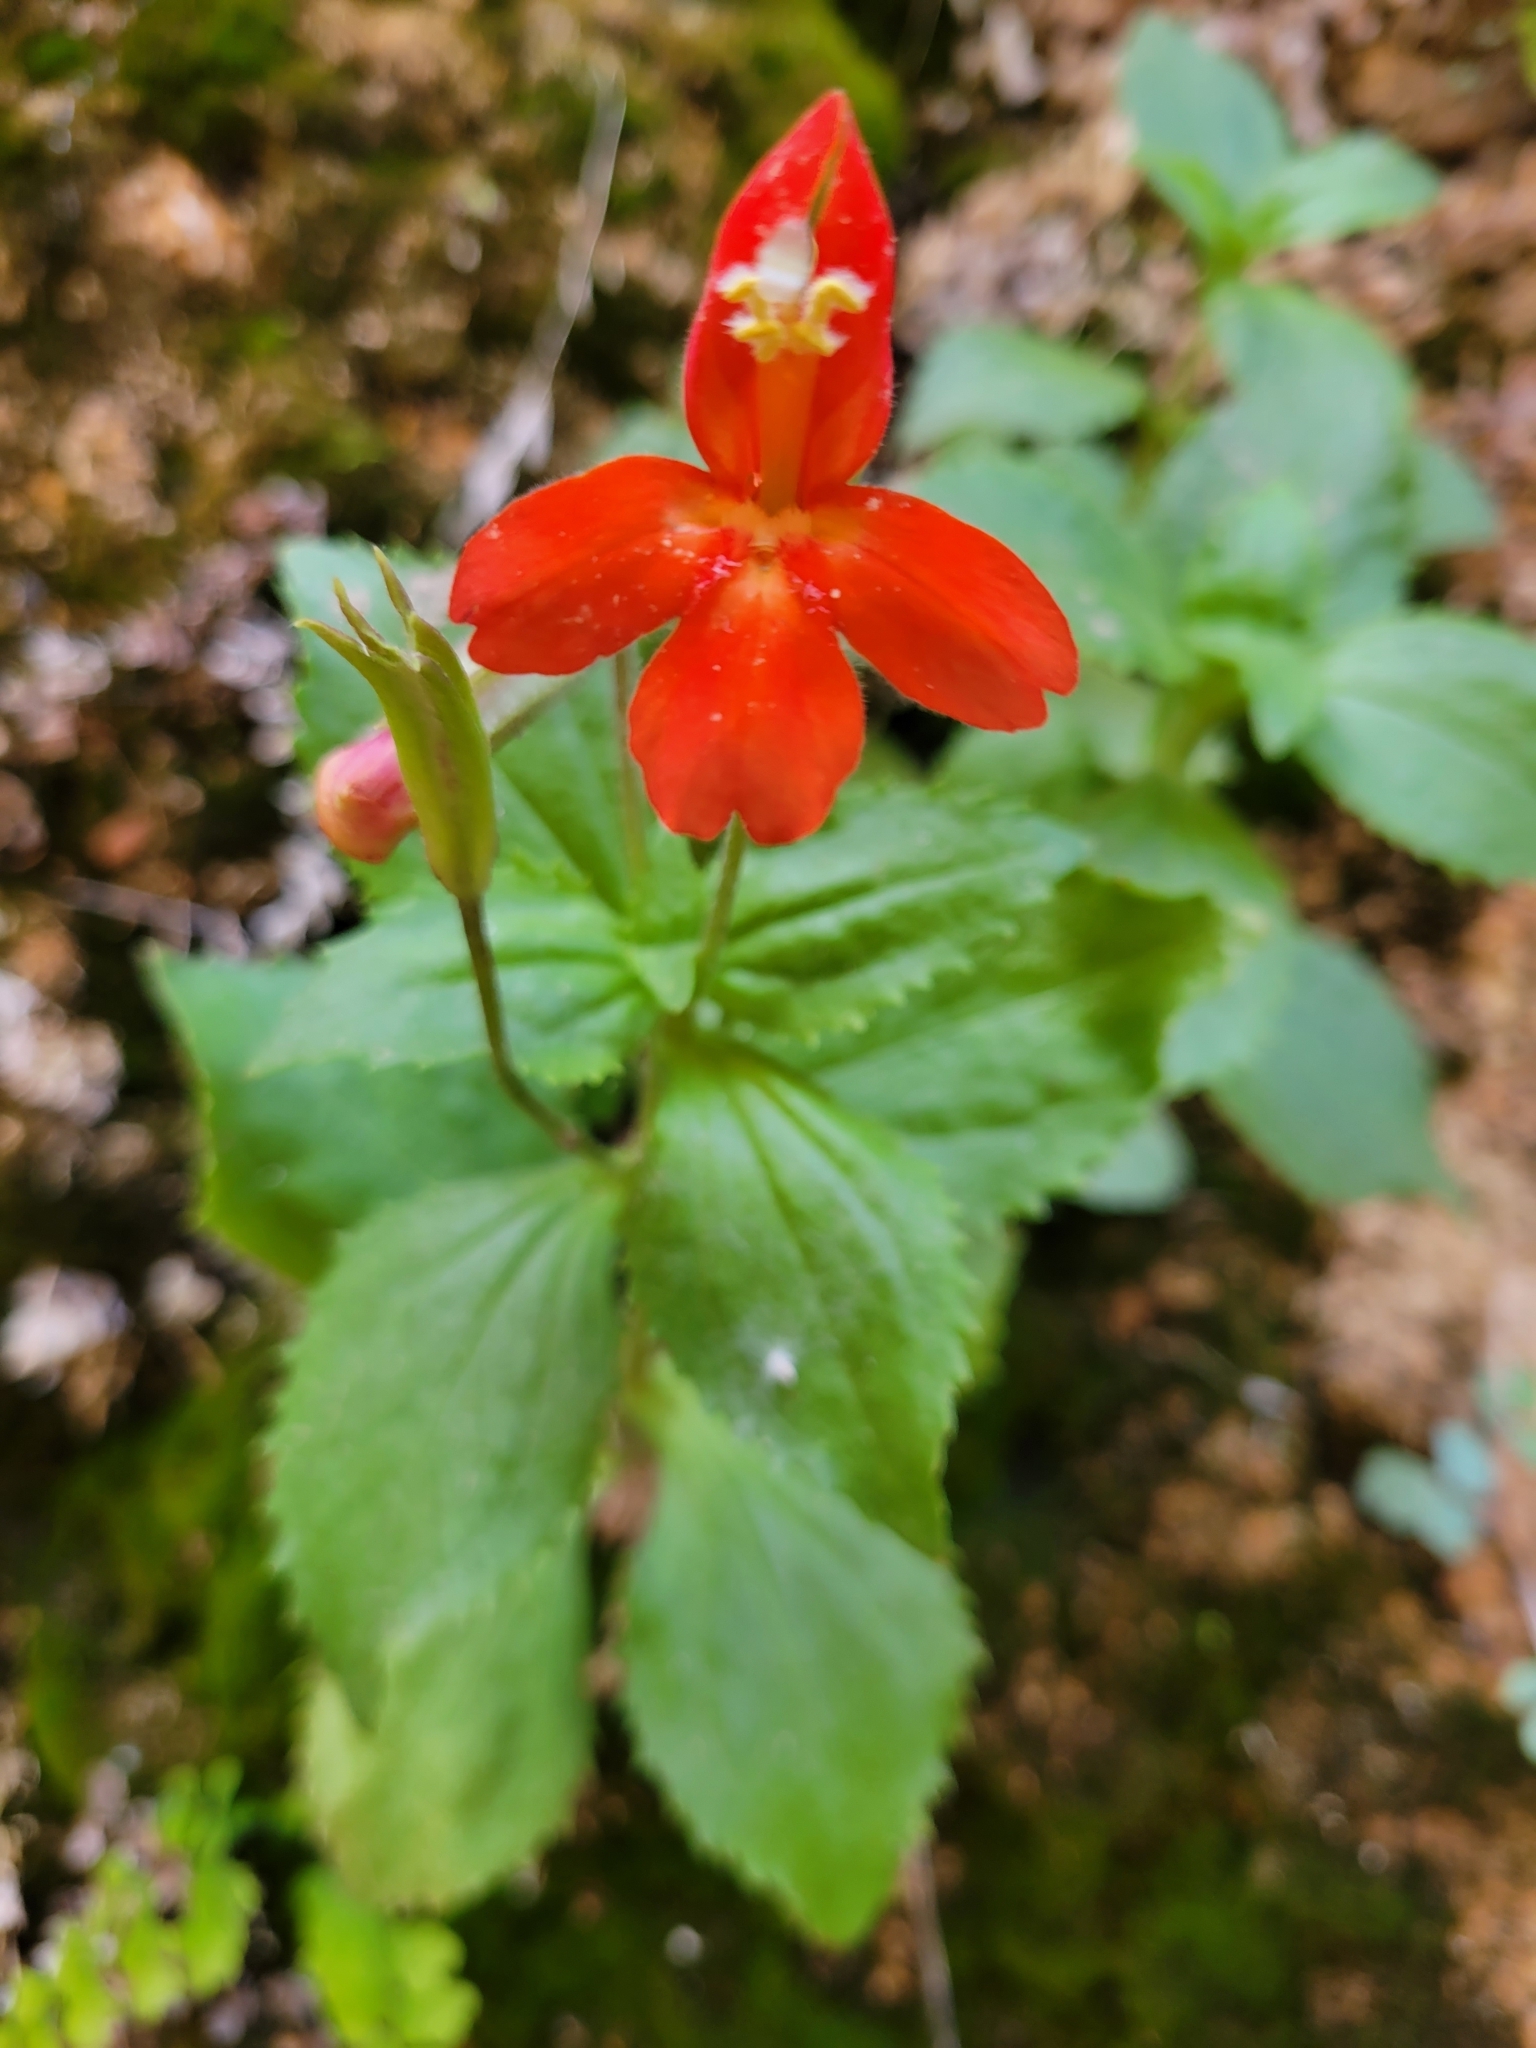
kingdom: Plantae
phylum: Tracheophyta
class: Magnoliopsida
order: Lamiales
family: Phrymaceae
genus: Erythranthe
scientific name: Erythranthe verbenacea
